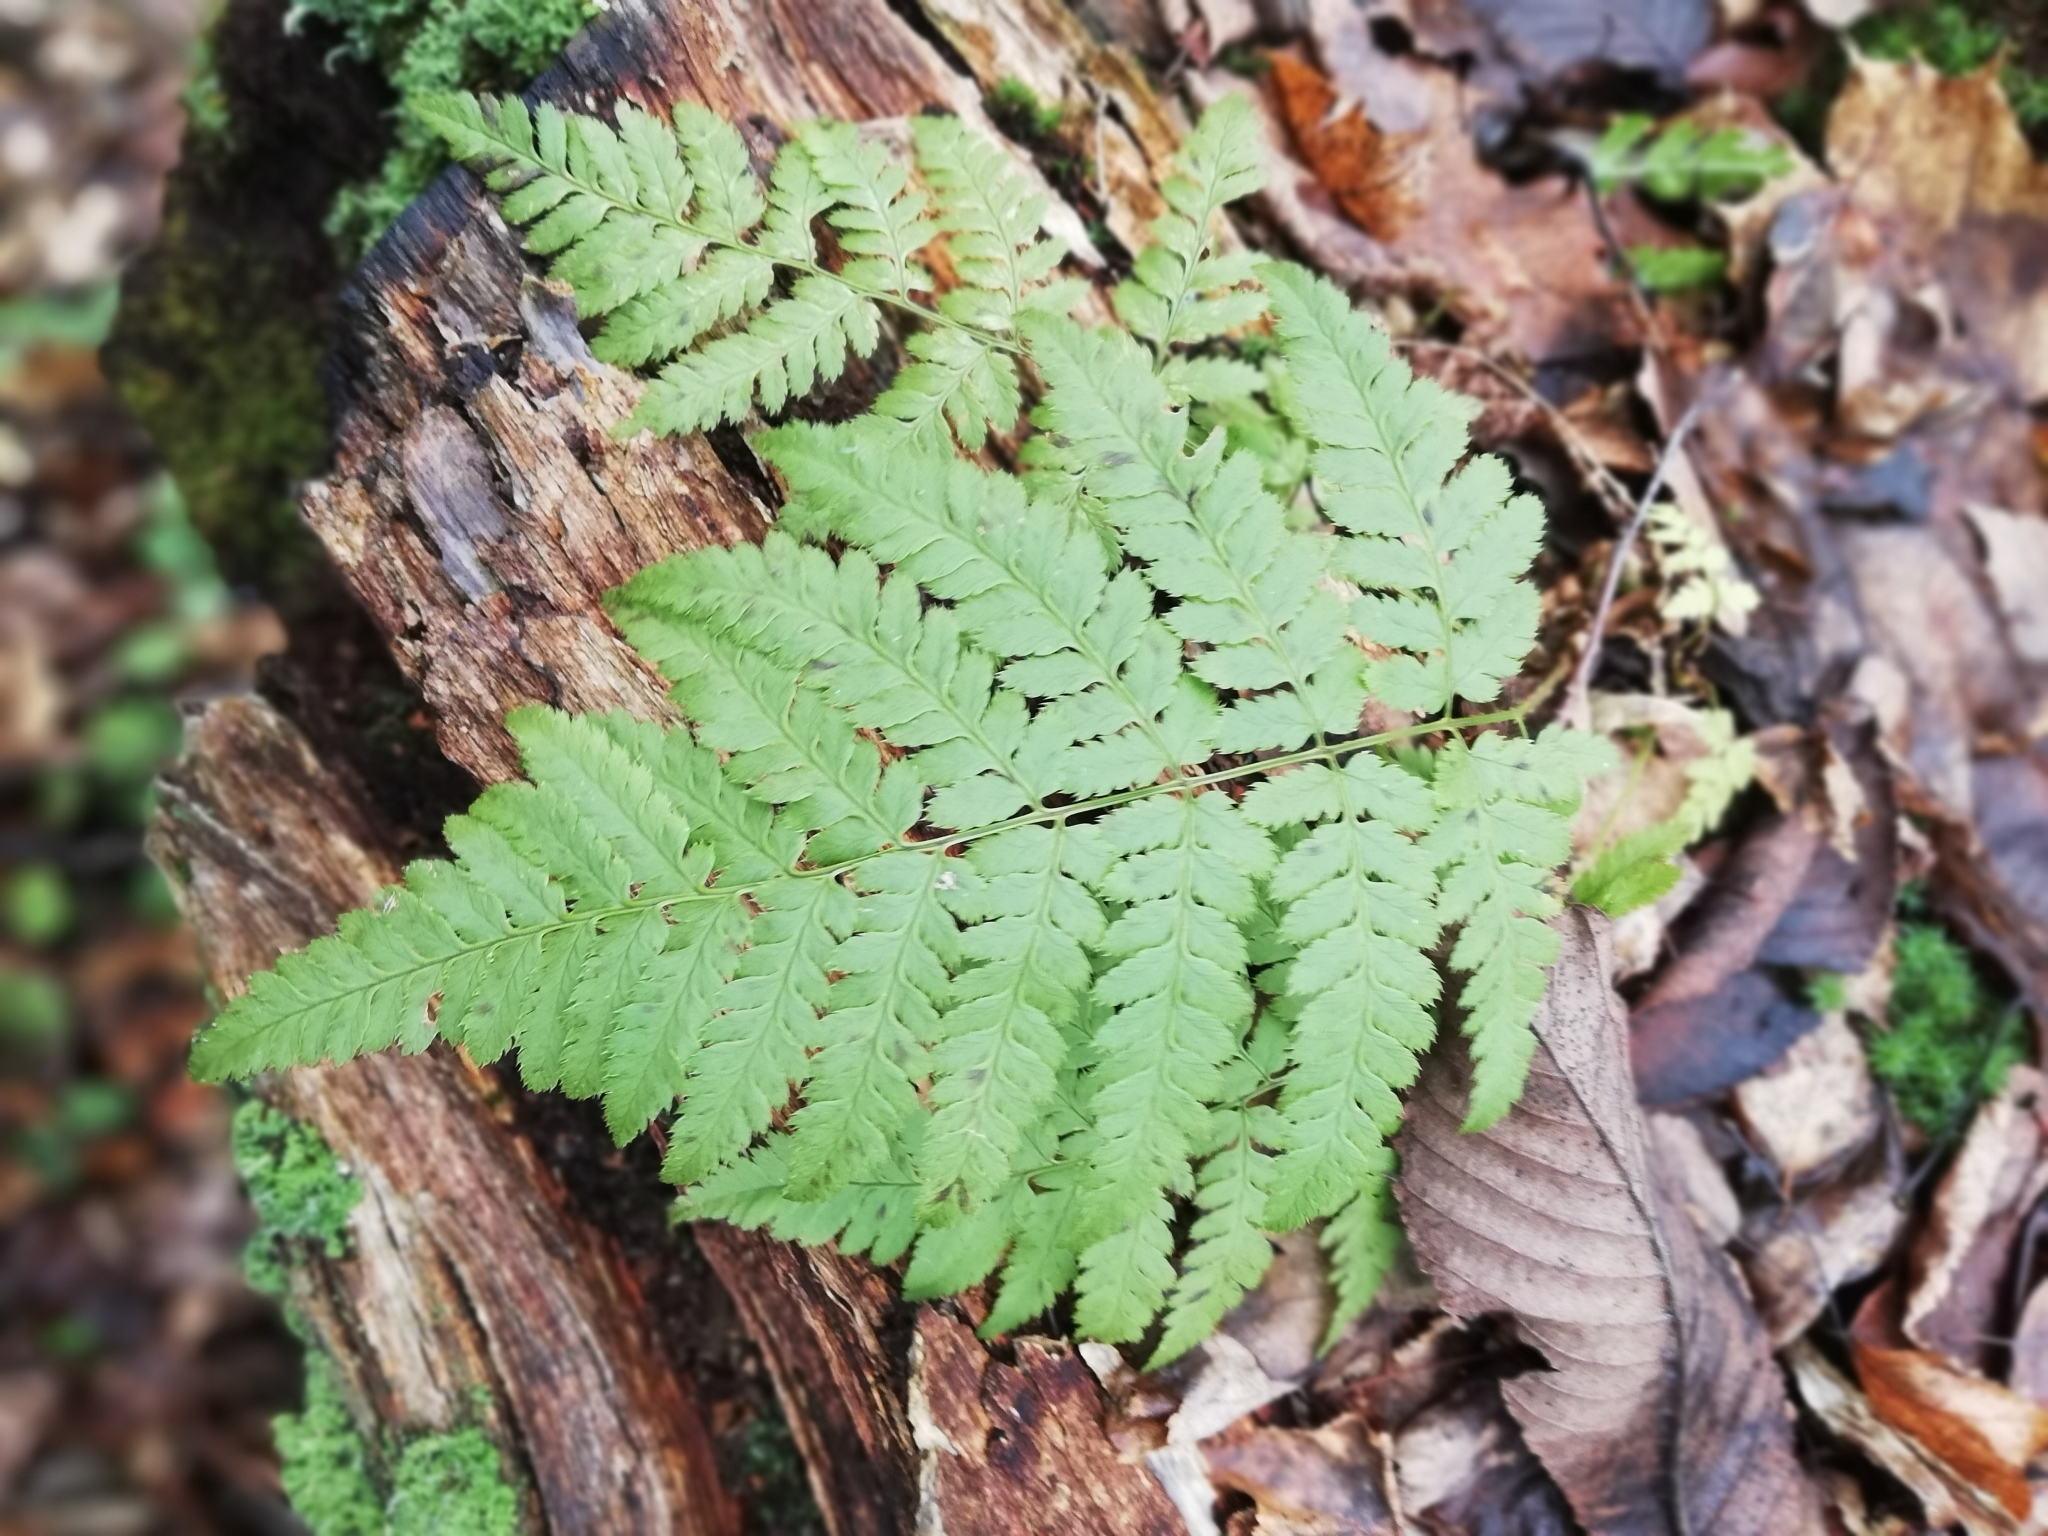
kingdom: Plantae
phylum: Tracheophyta
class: Polypodiopsida
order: Polypodiales
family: Dryopteridaceae
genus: Dryopteris
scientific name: Dryopteris carthusiana
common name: Narrow buckler-fern
